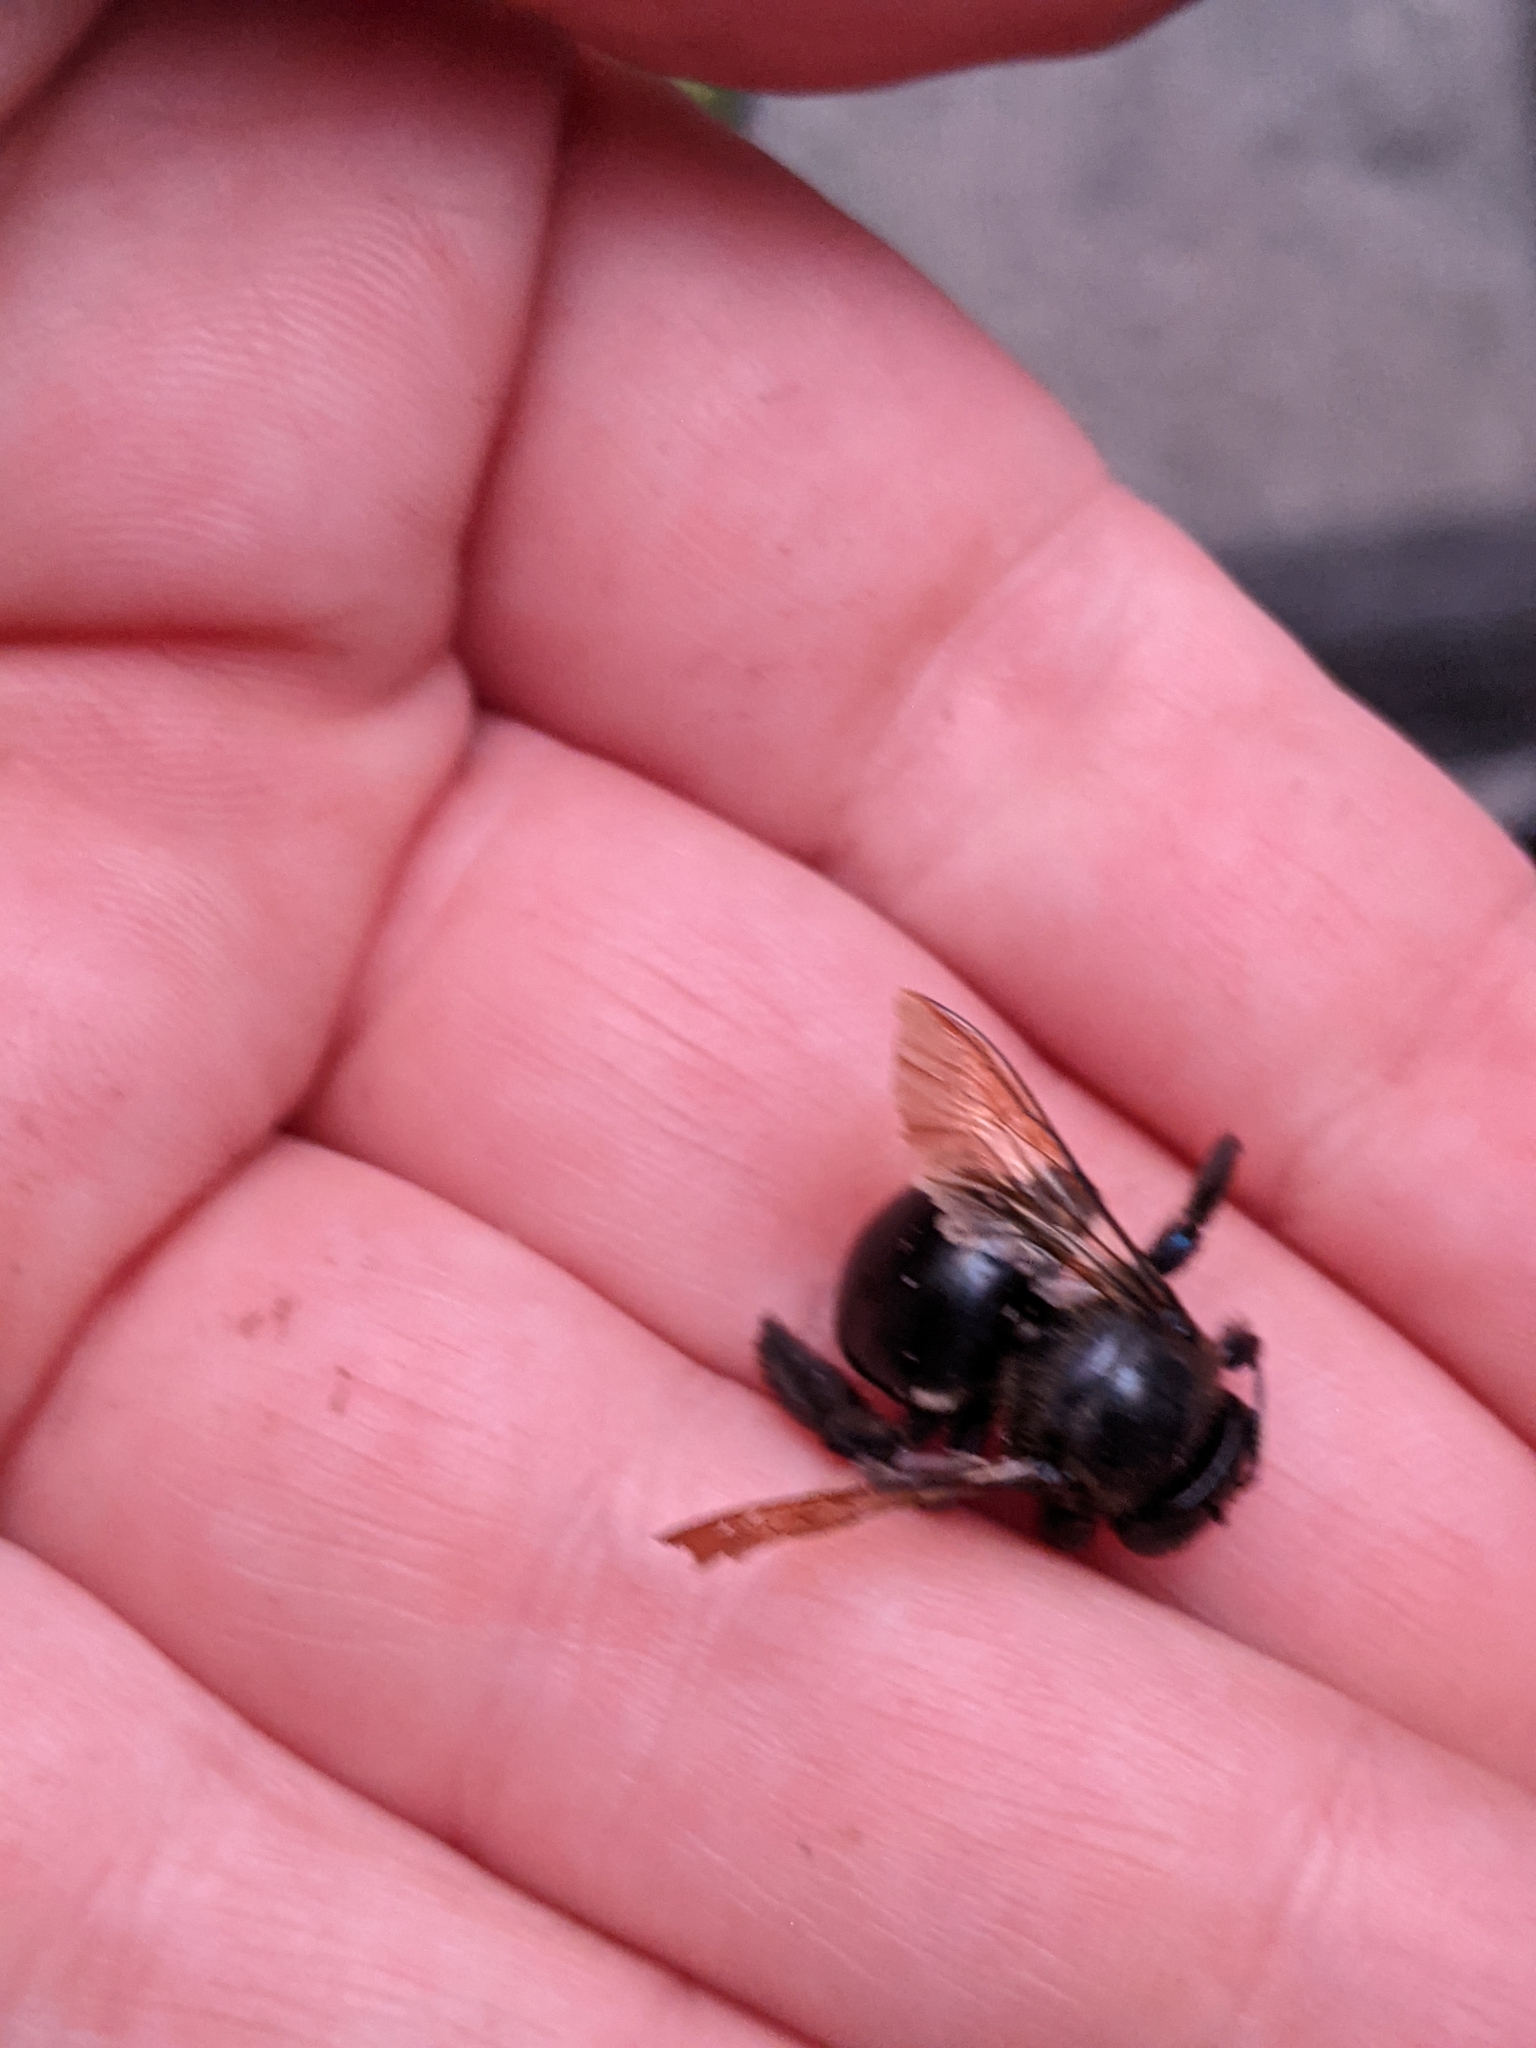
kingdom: Animalia
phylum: Arthropoda
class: Insecta
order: Hymenoptera
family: Apidae
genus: Xylocopa
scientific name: Xylocopa micans
